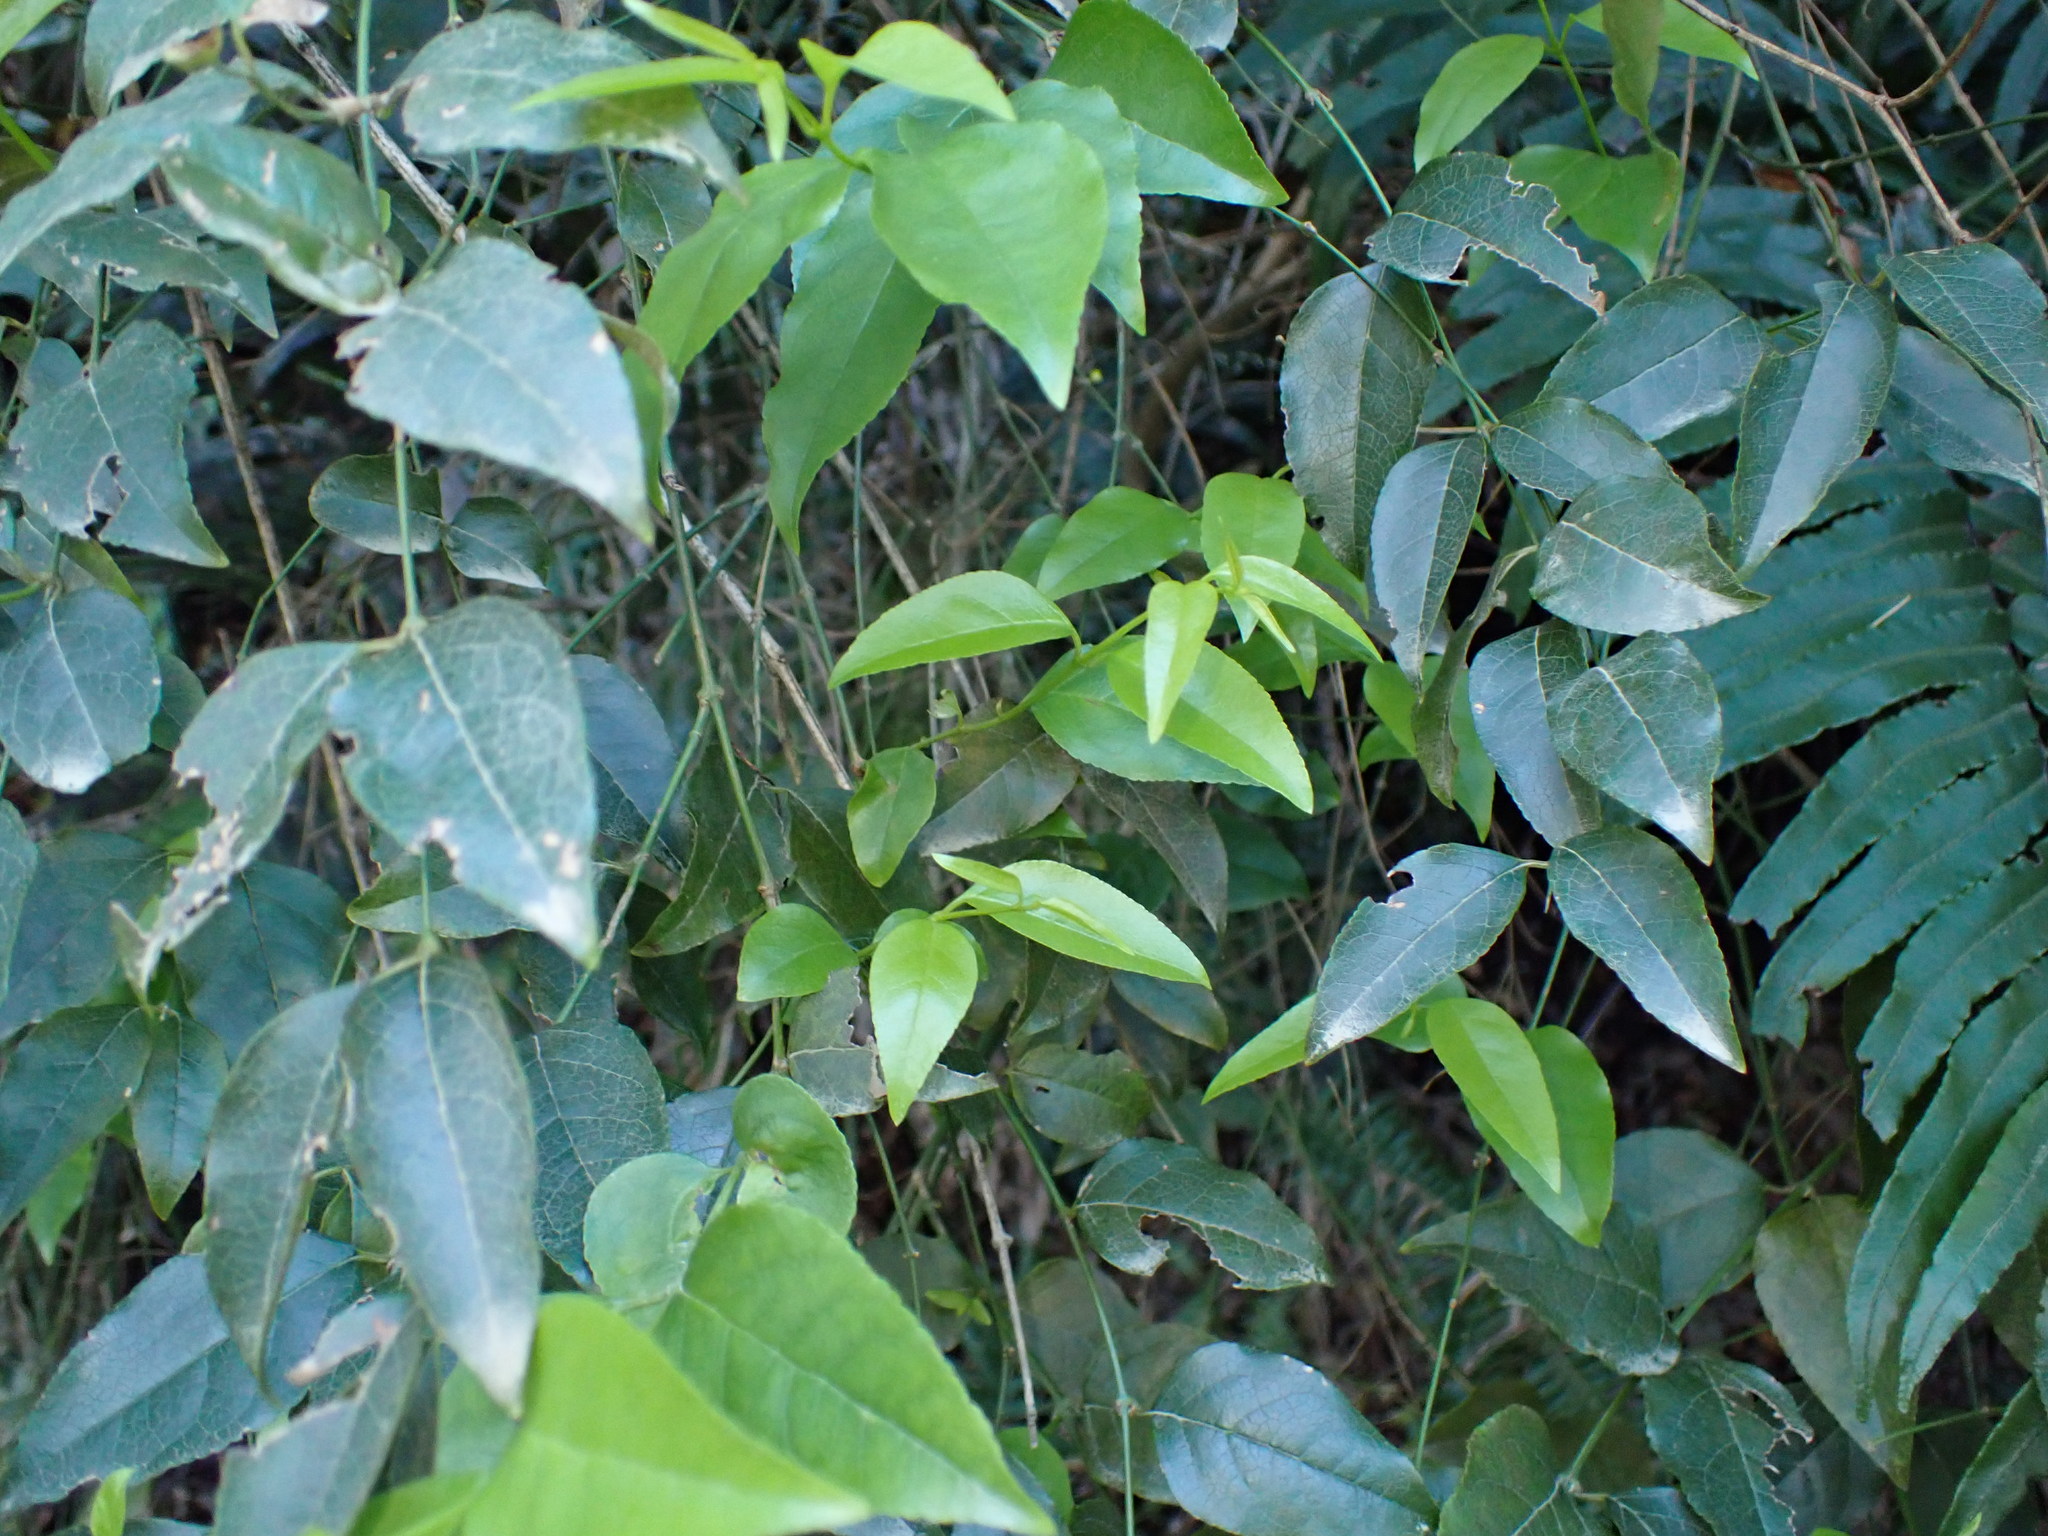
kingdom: Plantae
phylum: Tracheophyta
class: Magnoliopsida
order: Lamiales
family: Stilbaceae
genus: Halleria
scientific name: Halleria lucida
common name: Tree fuschia
